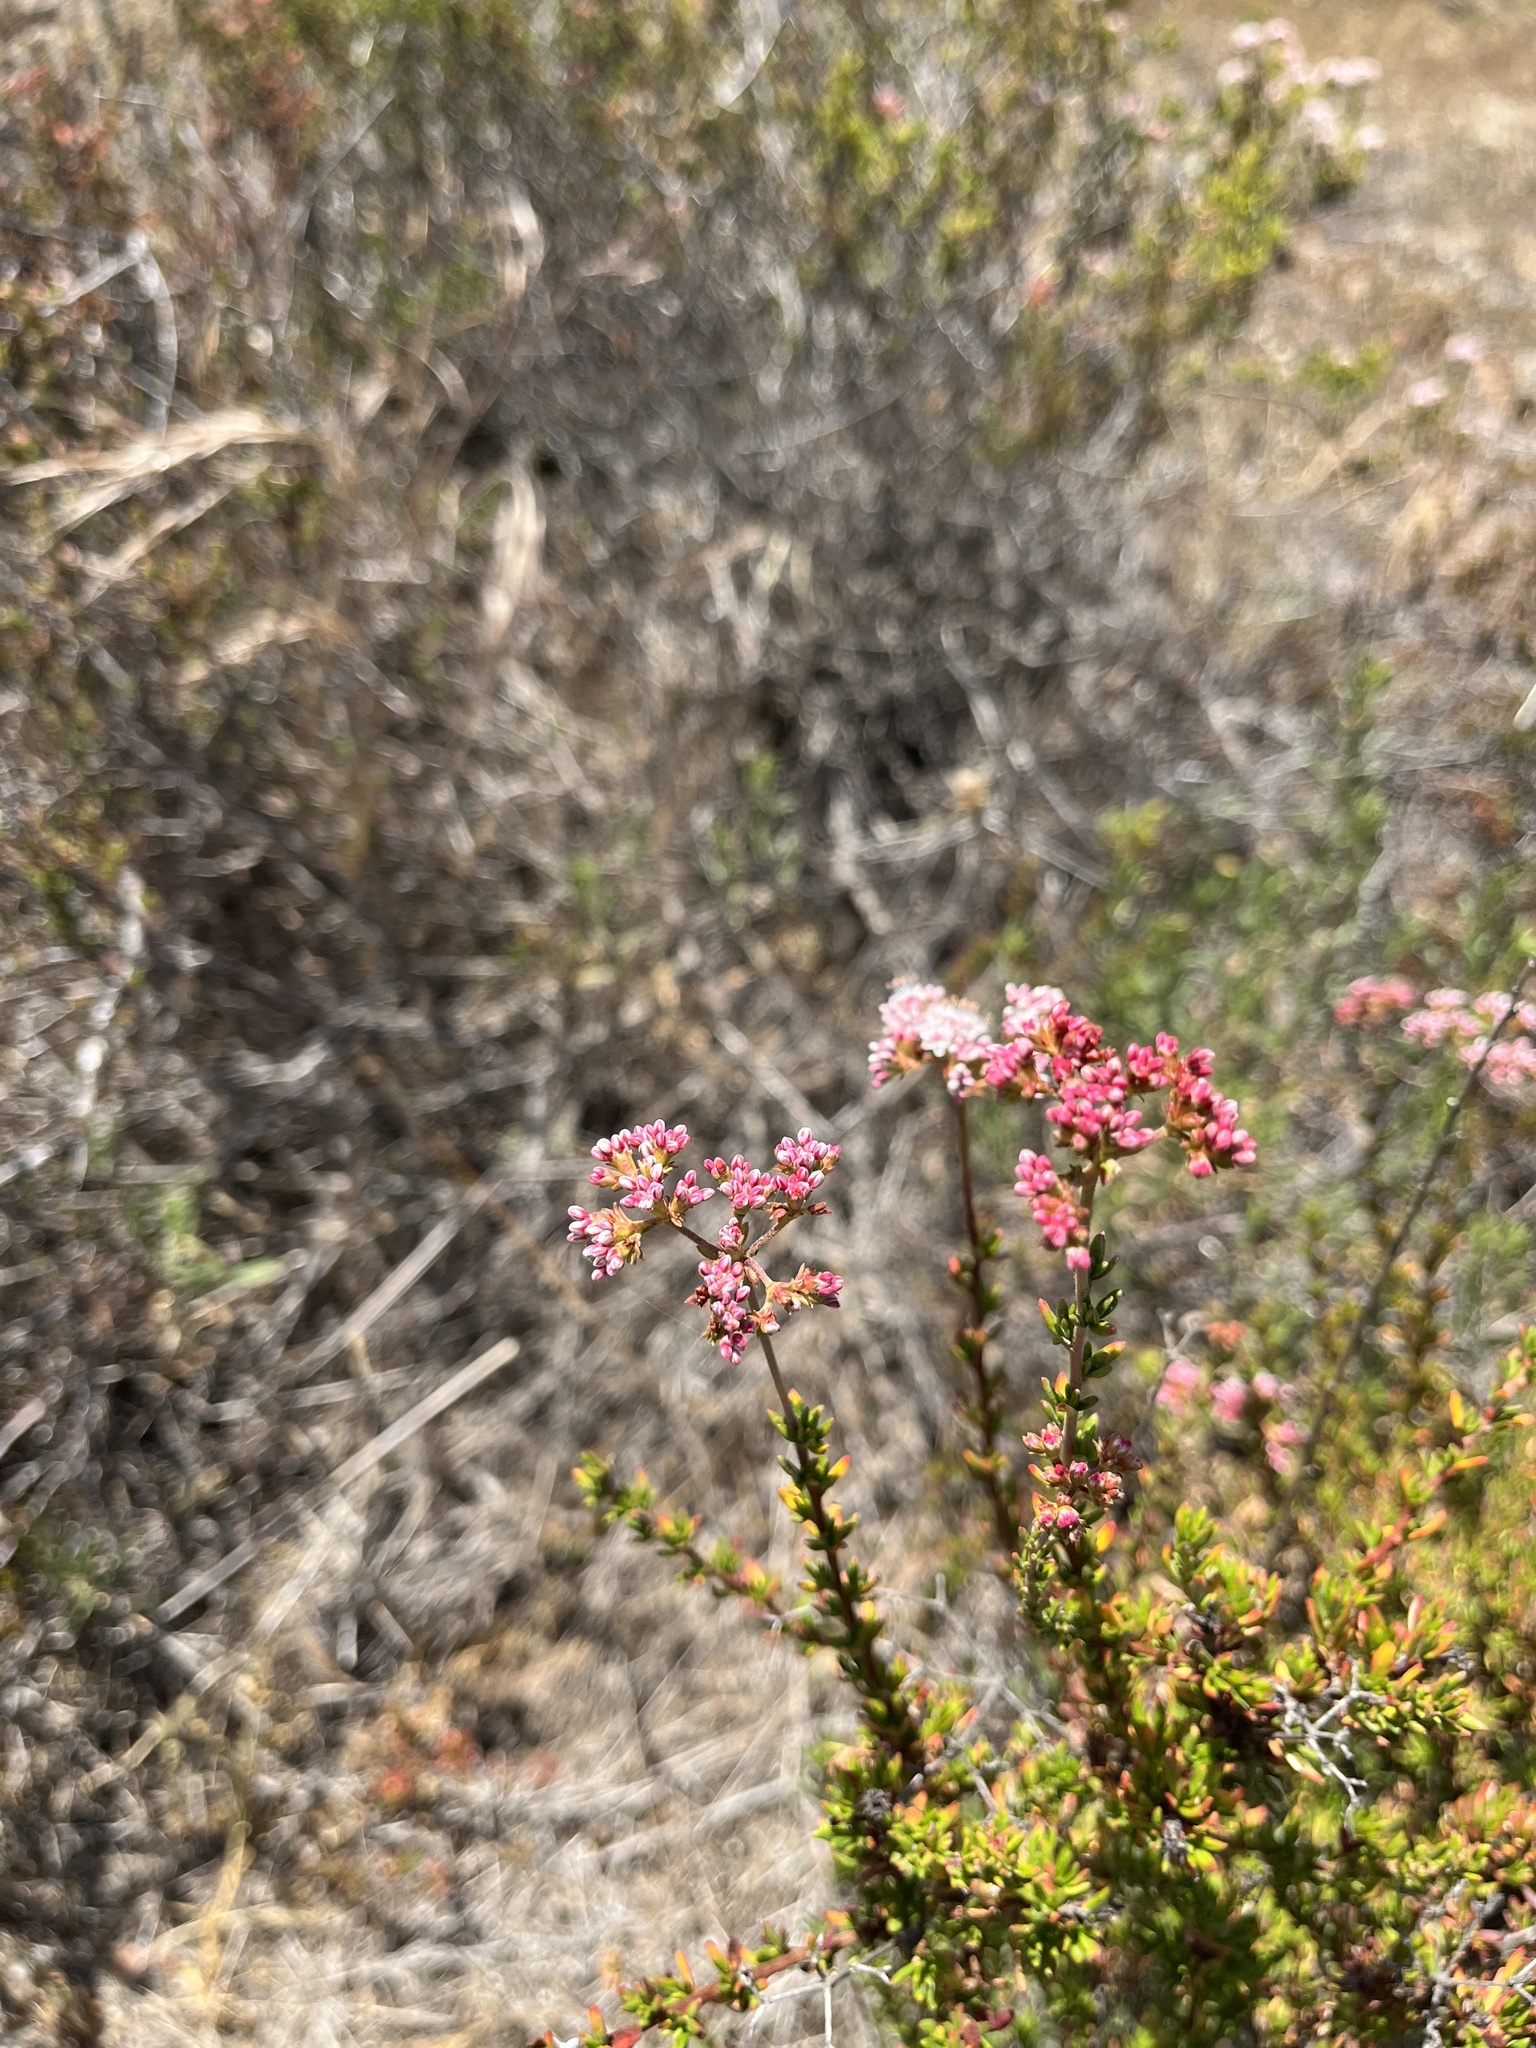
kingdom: Plantae
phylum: Tracheophyta
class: Magnoliopsida
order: Caryophyllales
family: Polygonaceae
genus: Eriogonum
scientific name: Eriogonum fasciculatum
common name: California wild buckwheat
